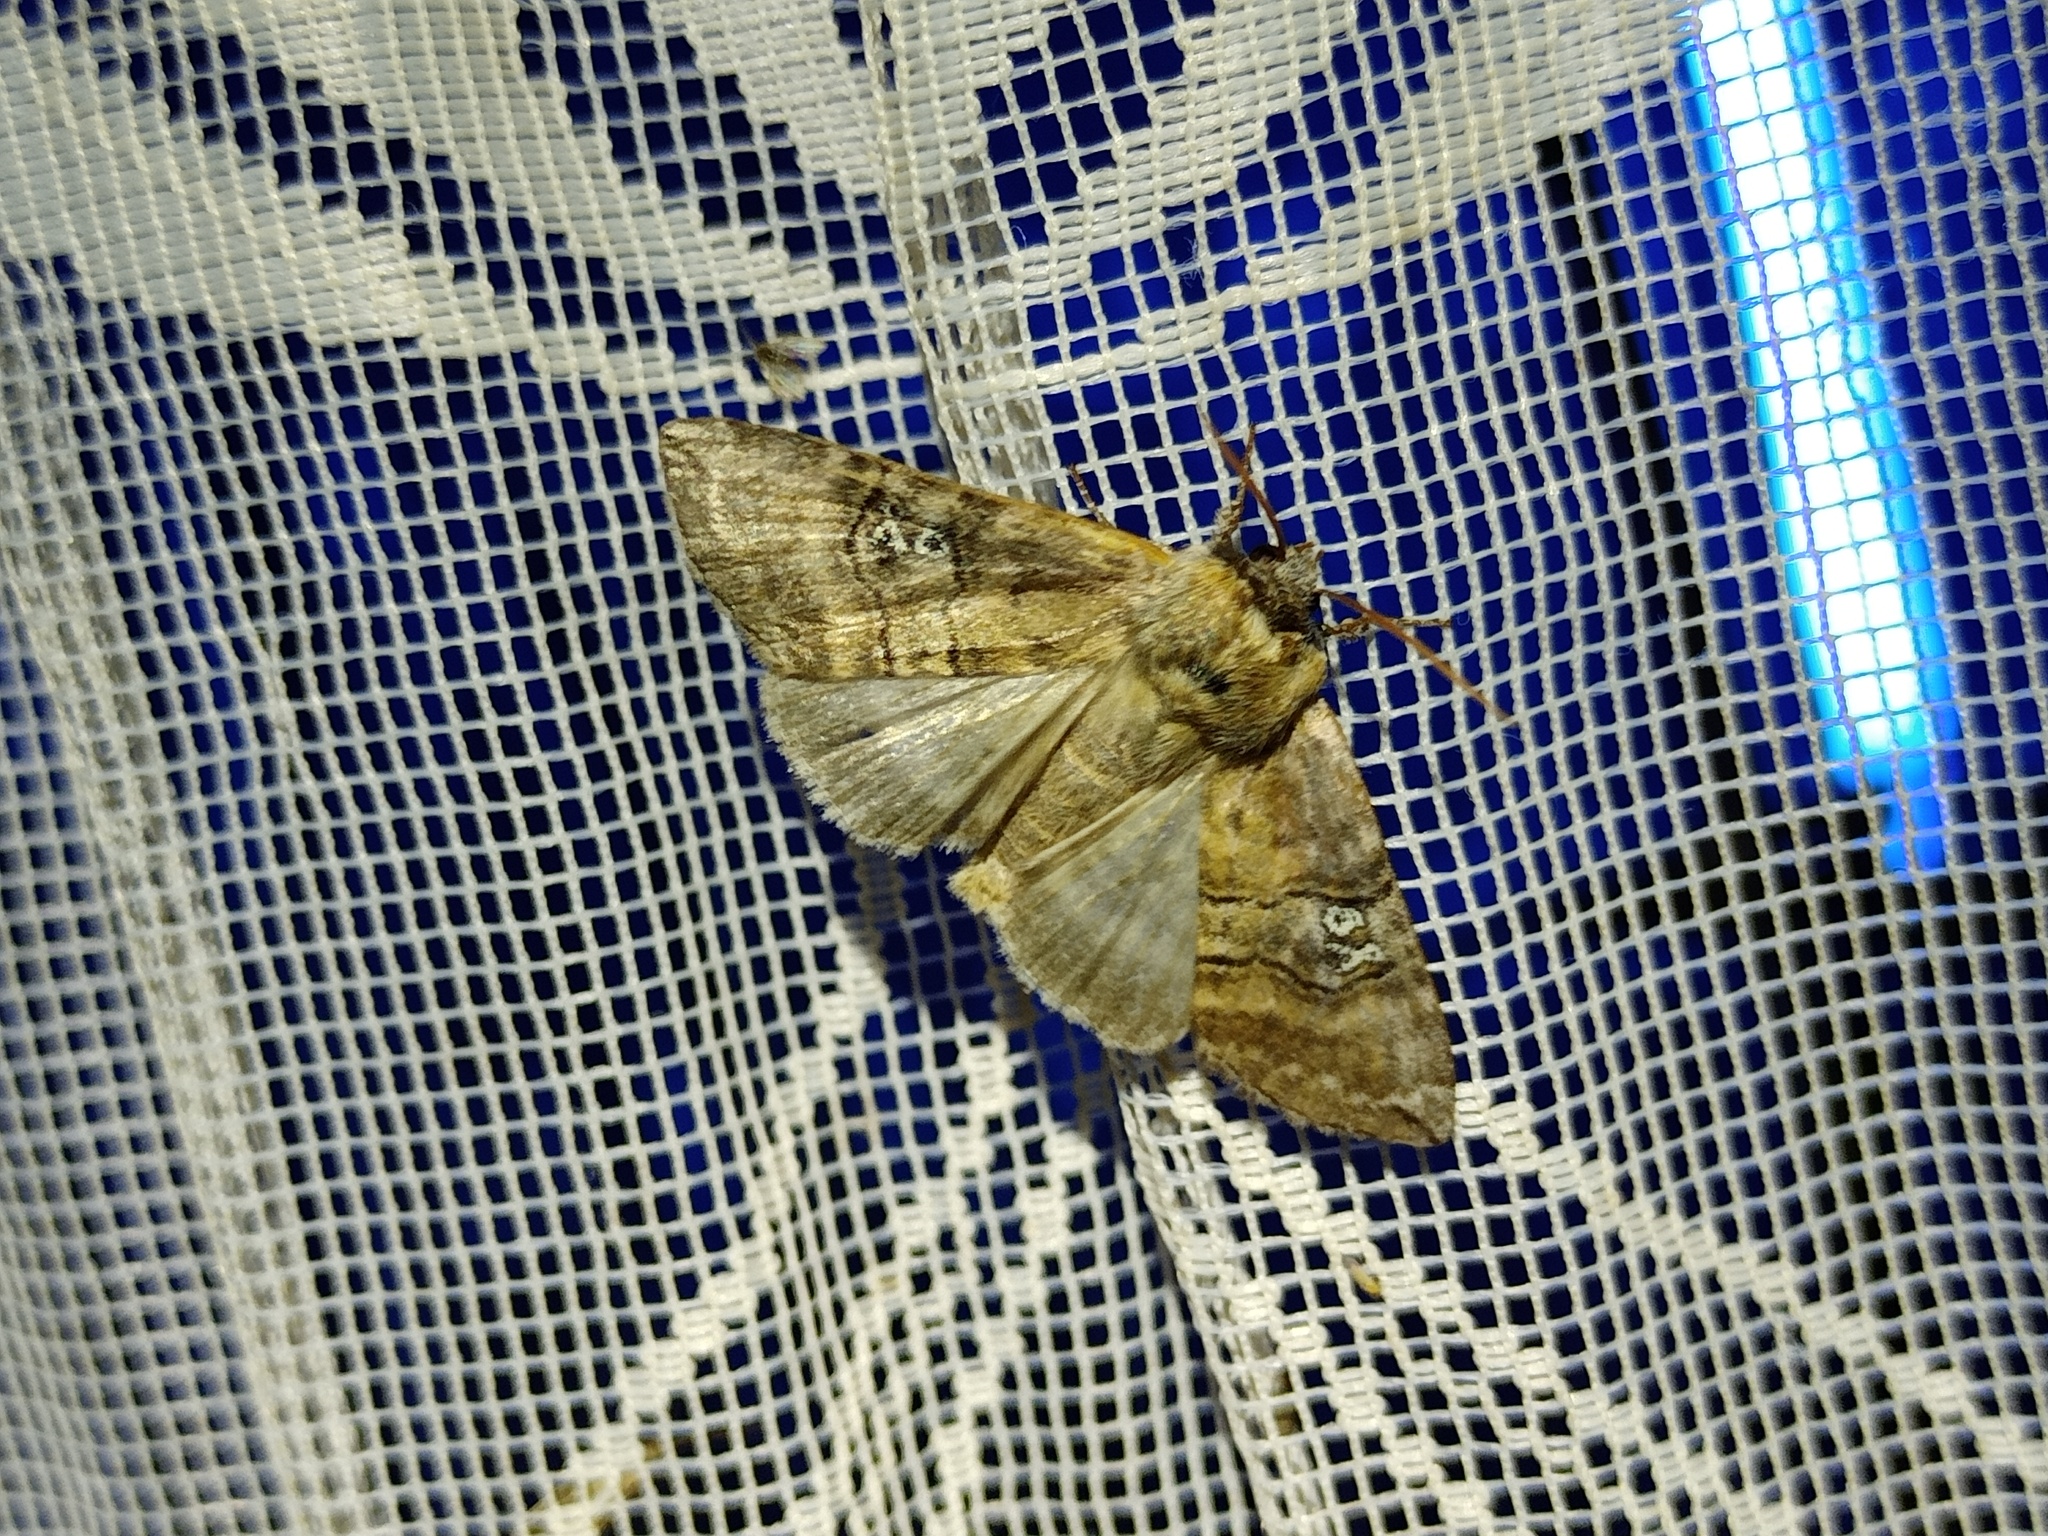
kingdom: Animalia
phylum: Arthropoda
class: Insecta
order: Lepidoptera
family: Drepanidae
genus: Tethea
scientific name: Tethea ocularis
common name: Figure of eighty
